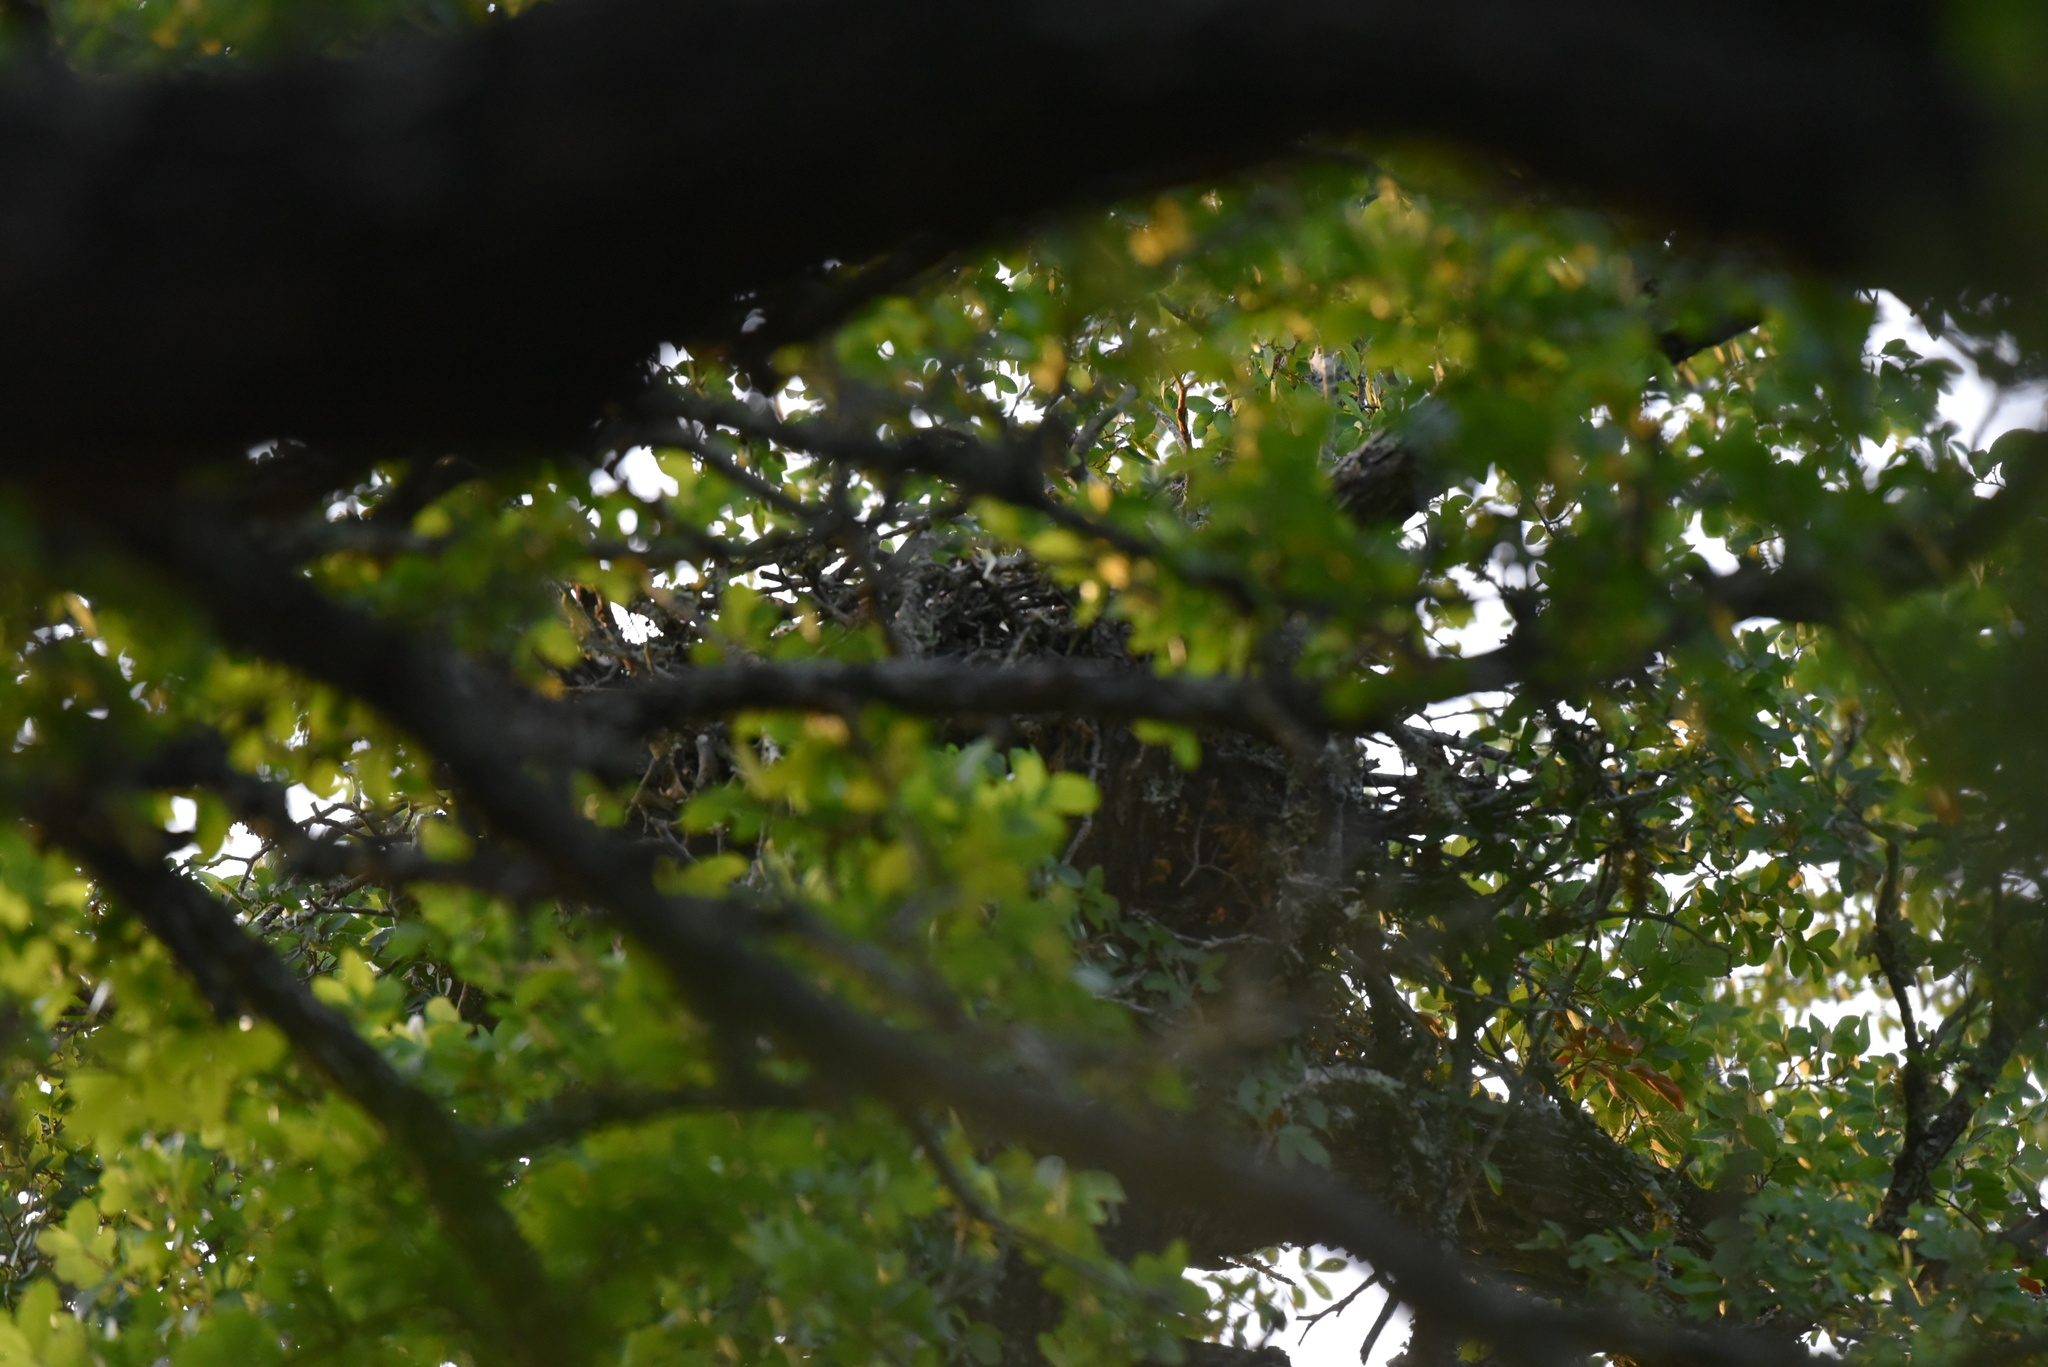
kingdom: Animalia
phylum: Chordata
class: Aves
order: Accipitriformes
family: Accipitridae
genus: Buteo
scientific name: Buteo lineatus
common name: Red-shouldered hawk
